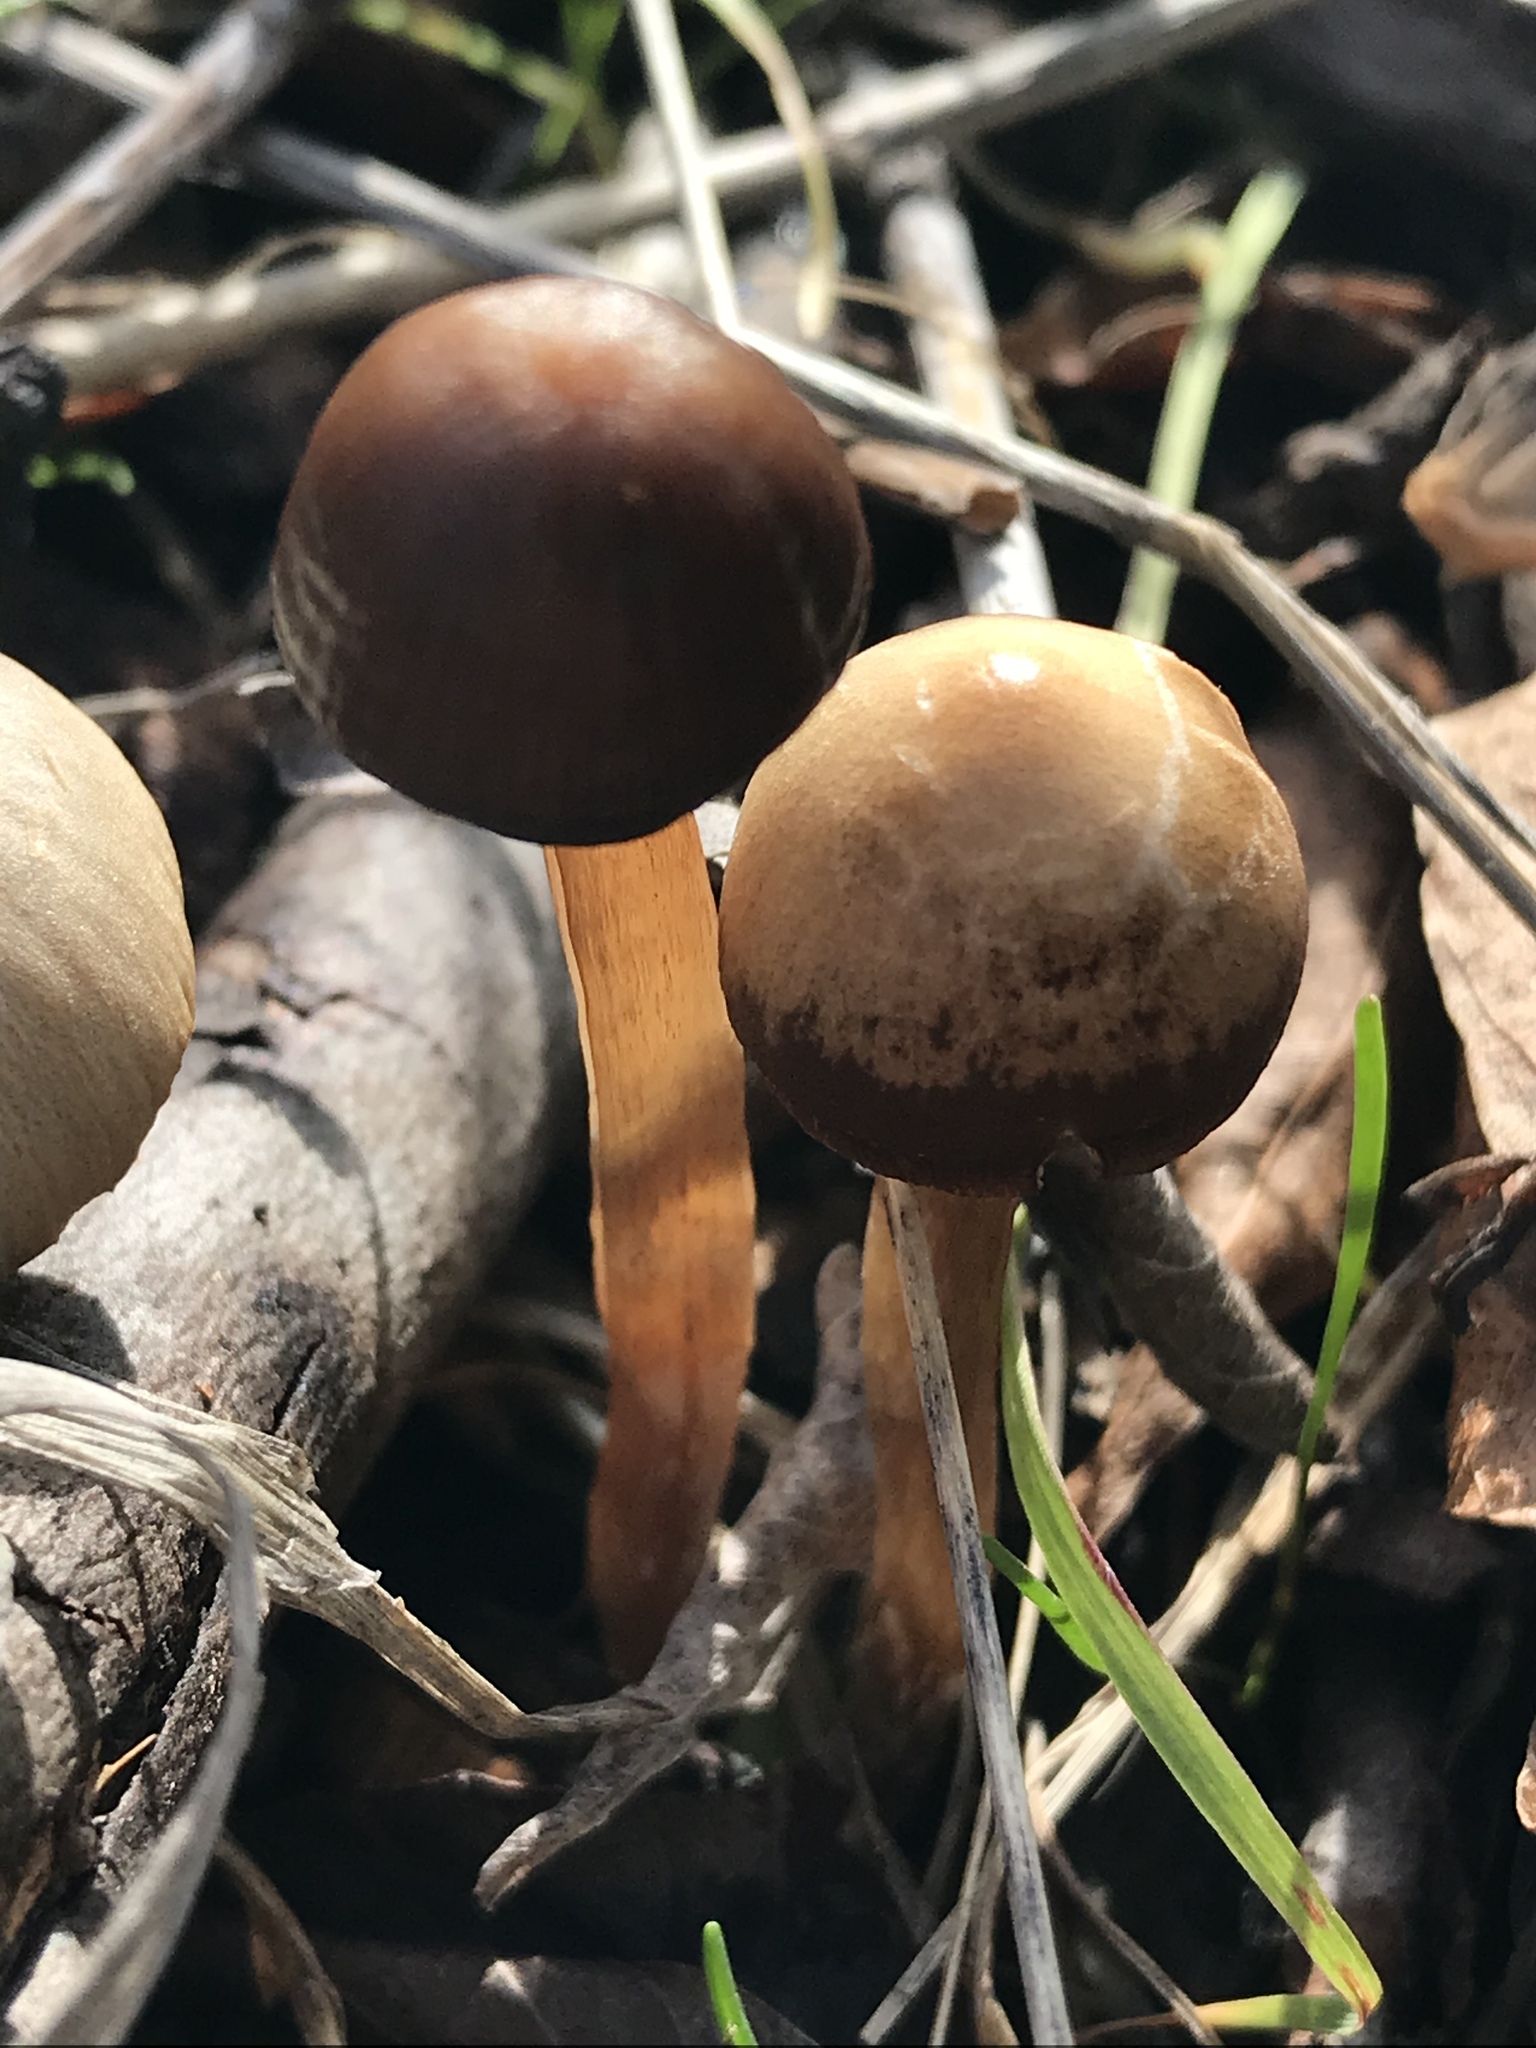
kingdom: Fungi
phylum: Basidiomycota
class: Agaricomycetes
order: Agaricales
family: Psathyrellaceae
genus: Psathyrella
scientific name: Psathyrella corrugis
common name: Red edge brittlestem
